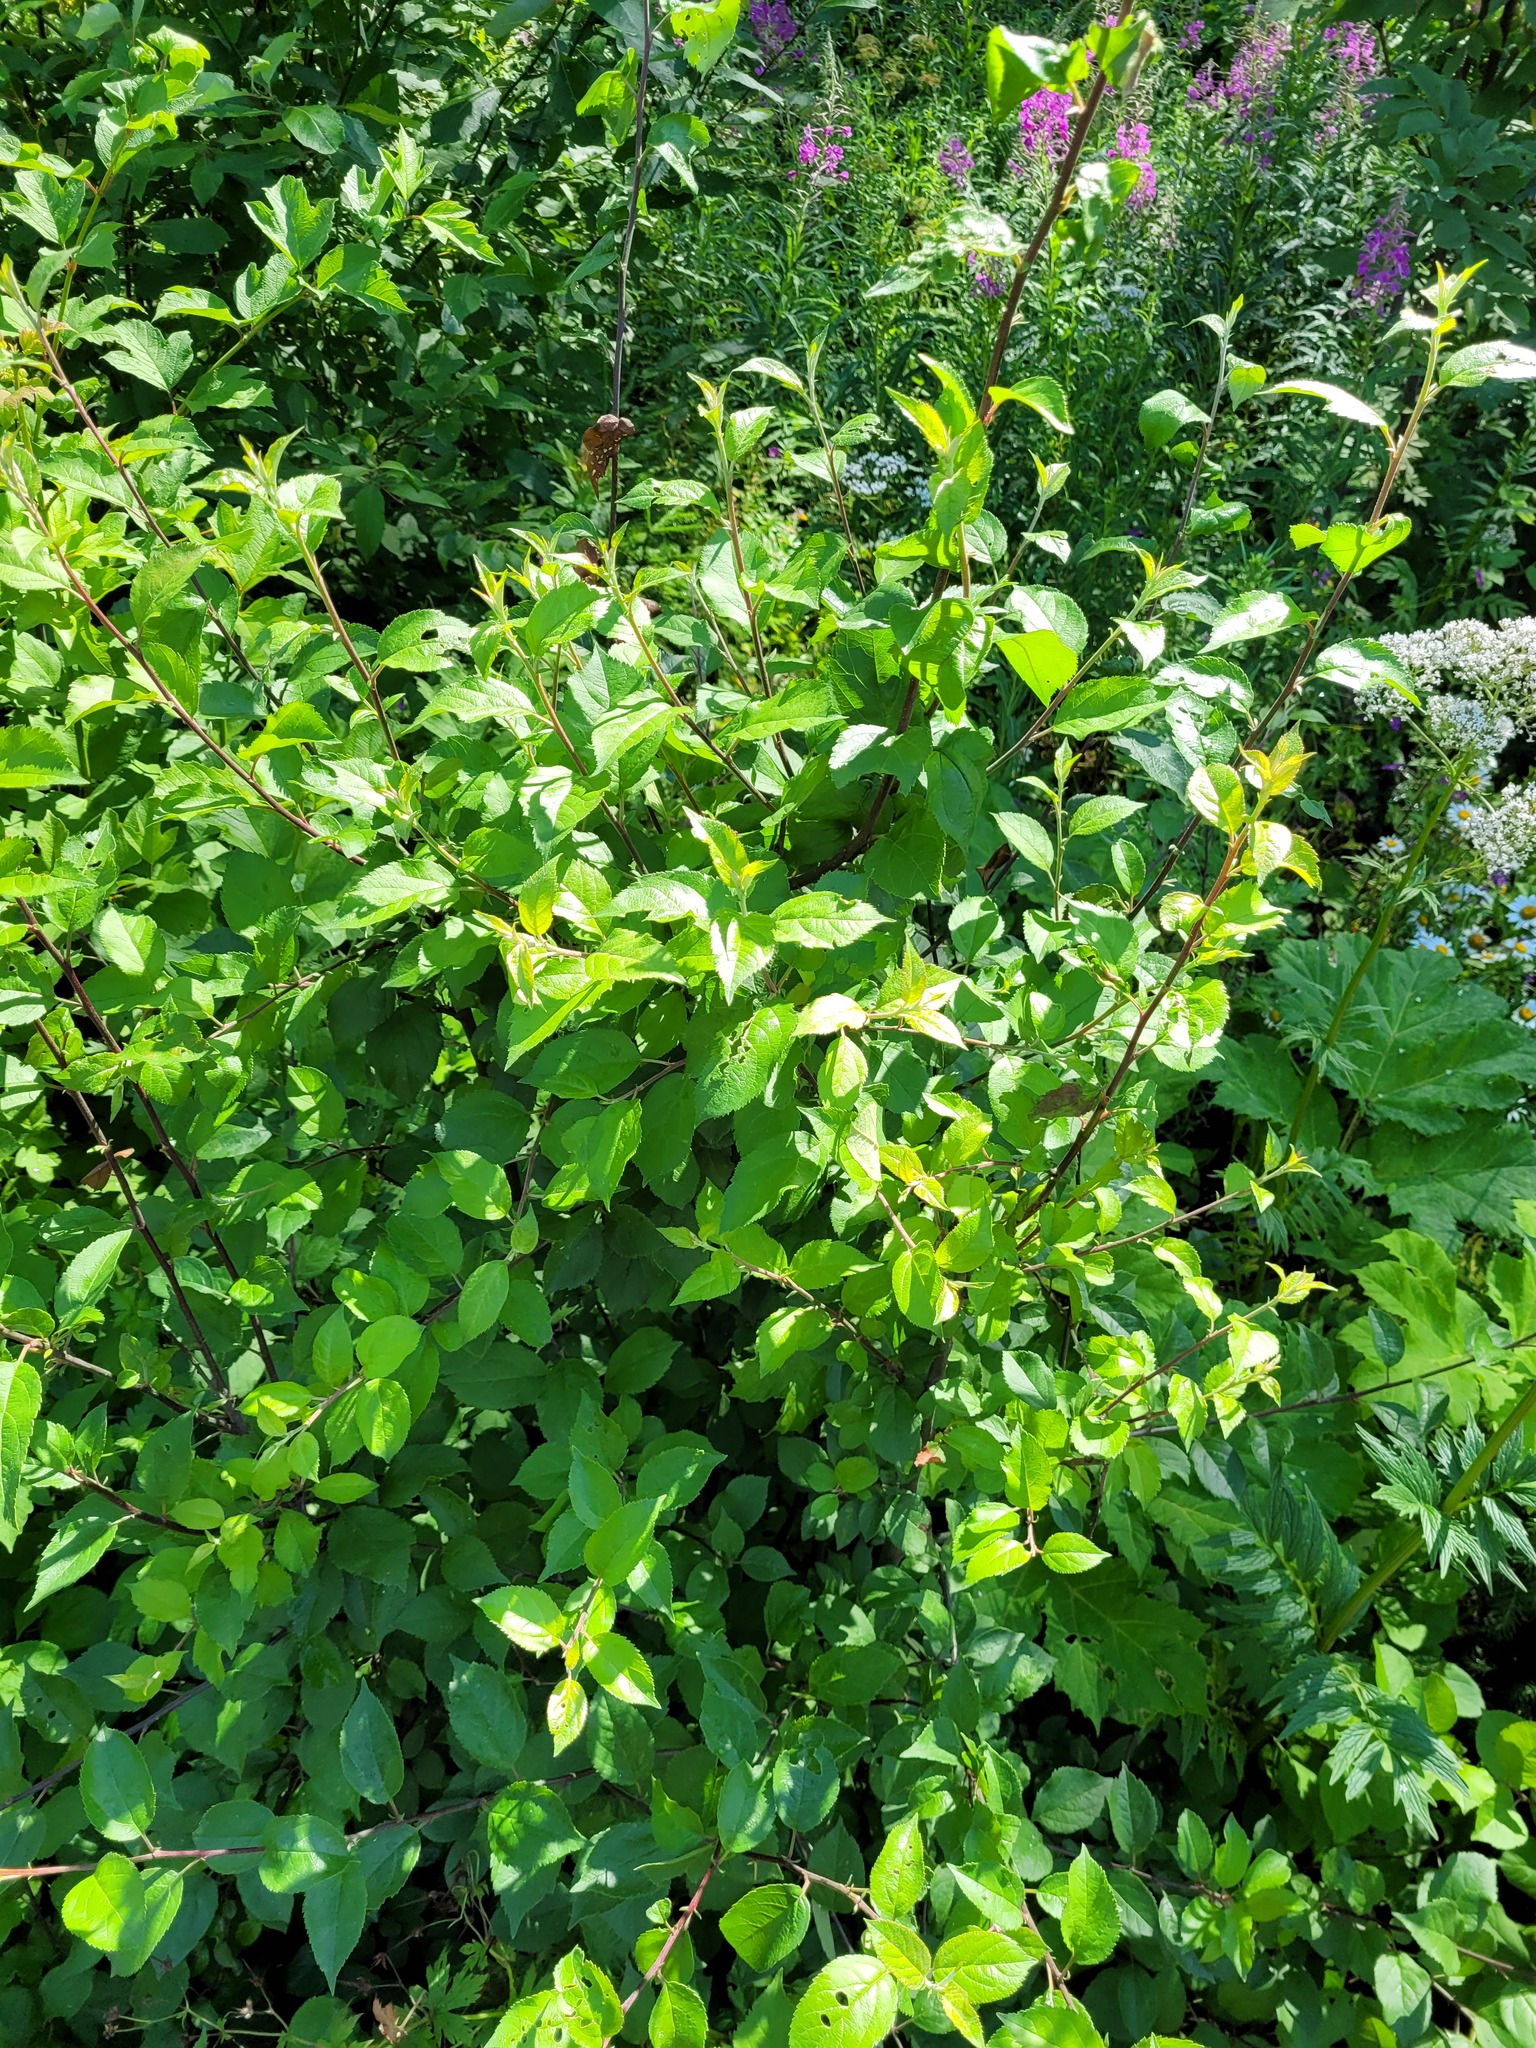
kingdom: Plantae
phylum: Tracheophyta
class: Magnoliopsida
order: Rosales
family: Rosaceae
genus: Malus
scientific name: Malus domestica
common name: Apple
